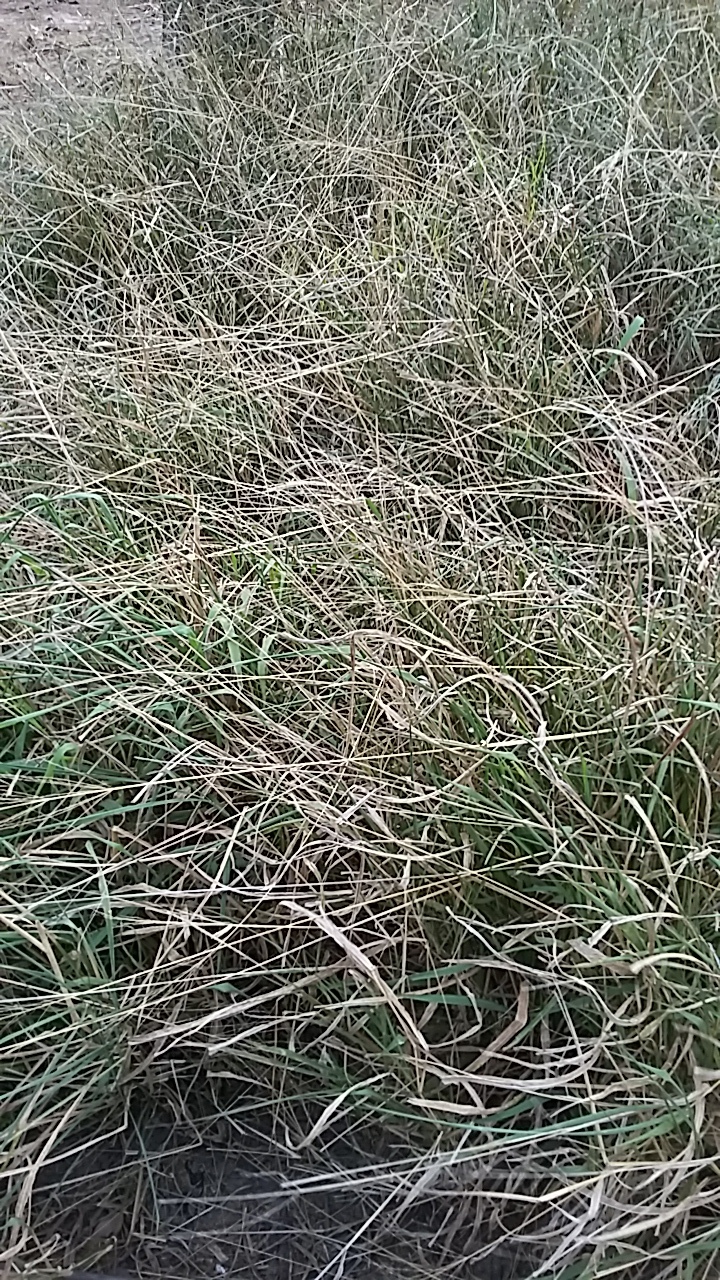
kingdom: Plantae
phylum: Tracheophyta
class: Liliopsida
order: Poales
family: Poaceae
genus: Megathyrsus
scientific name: Megathyrsus maximus
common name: Guineagrass
